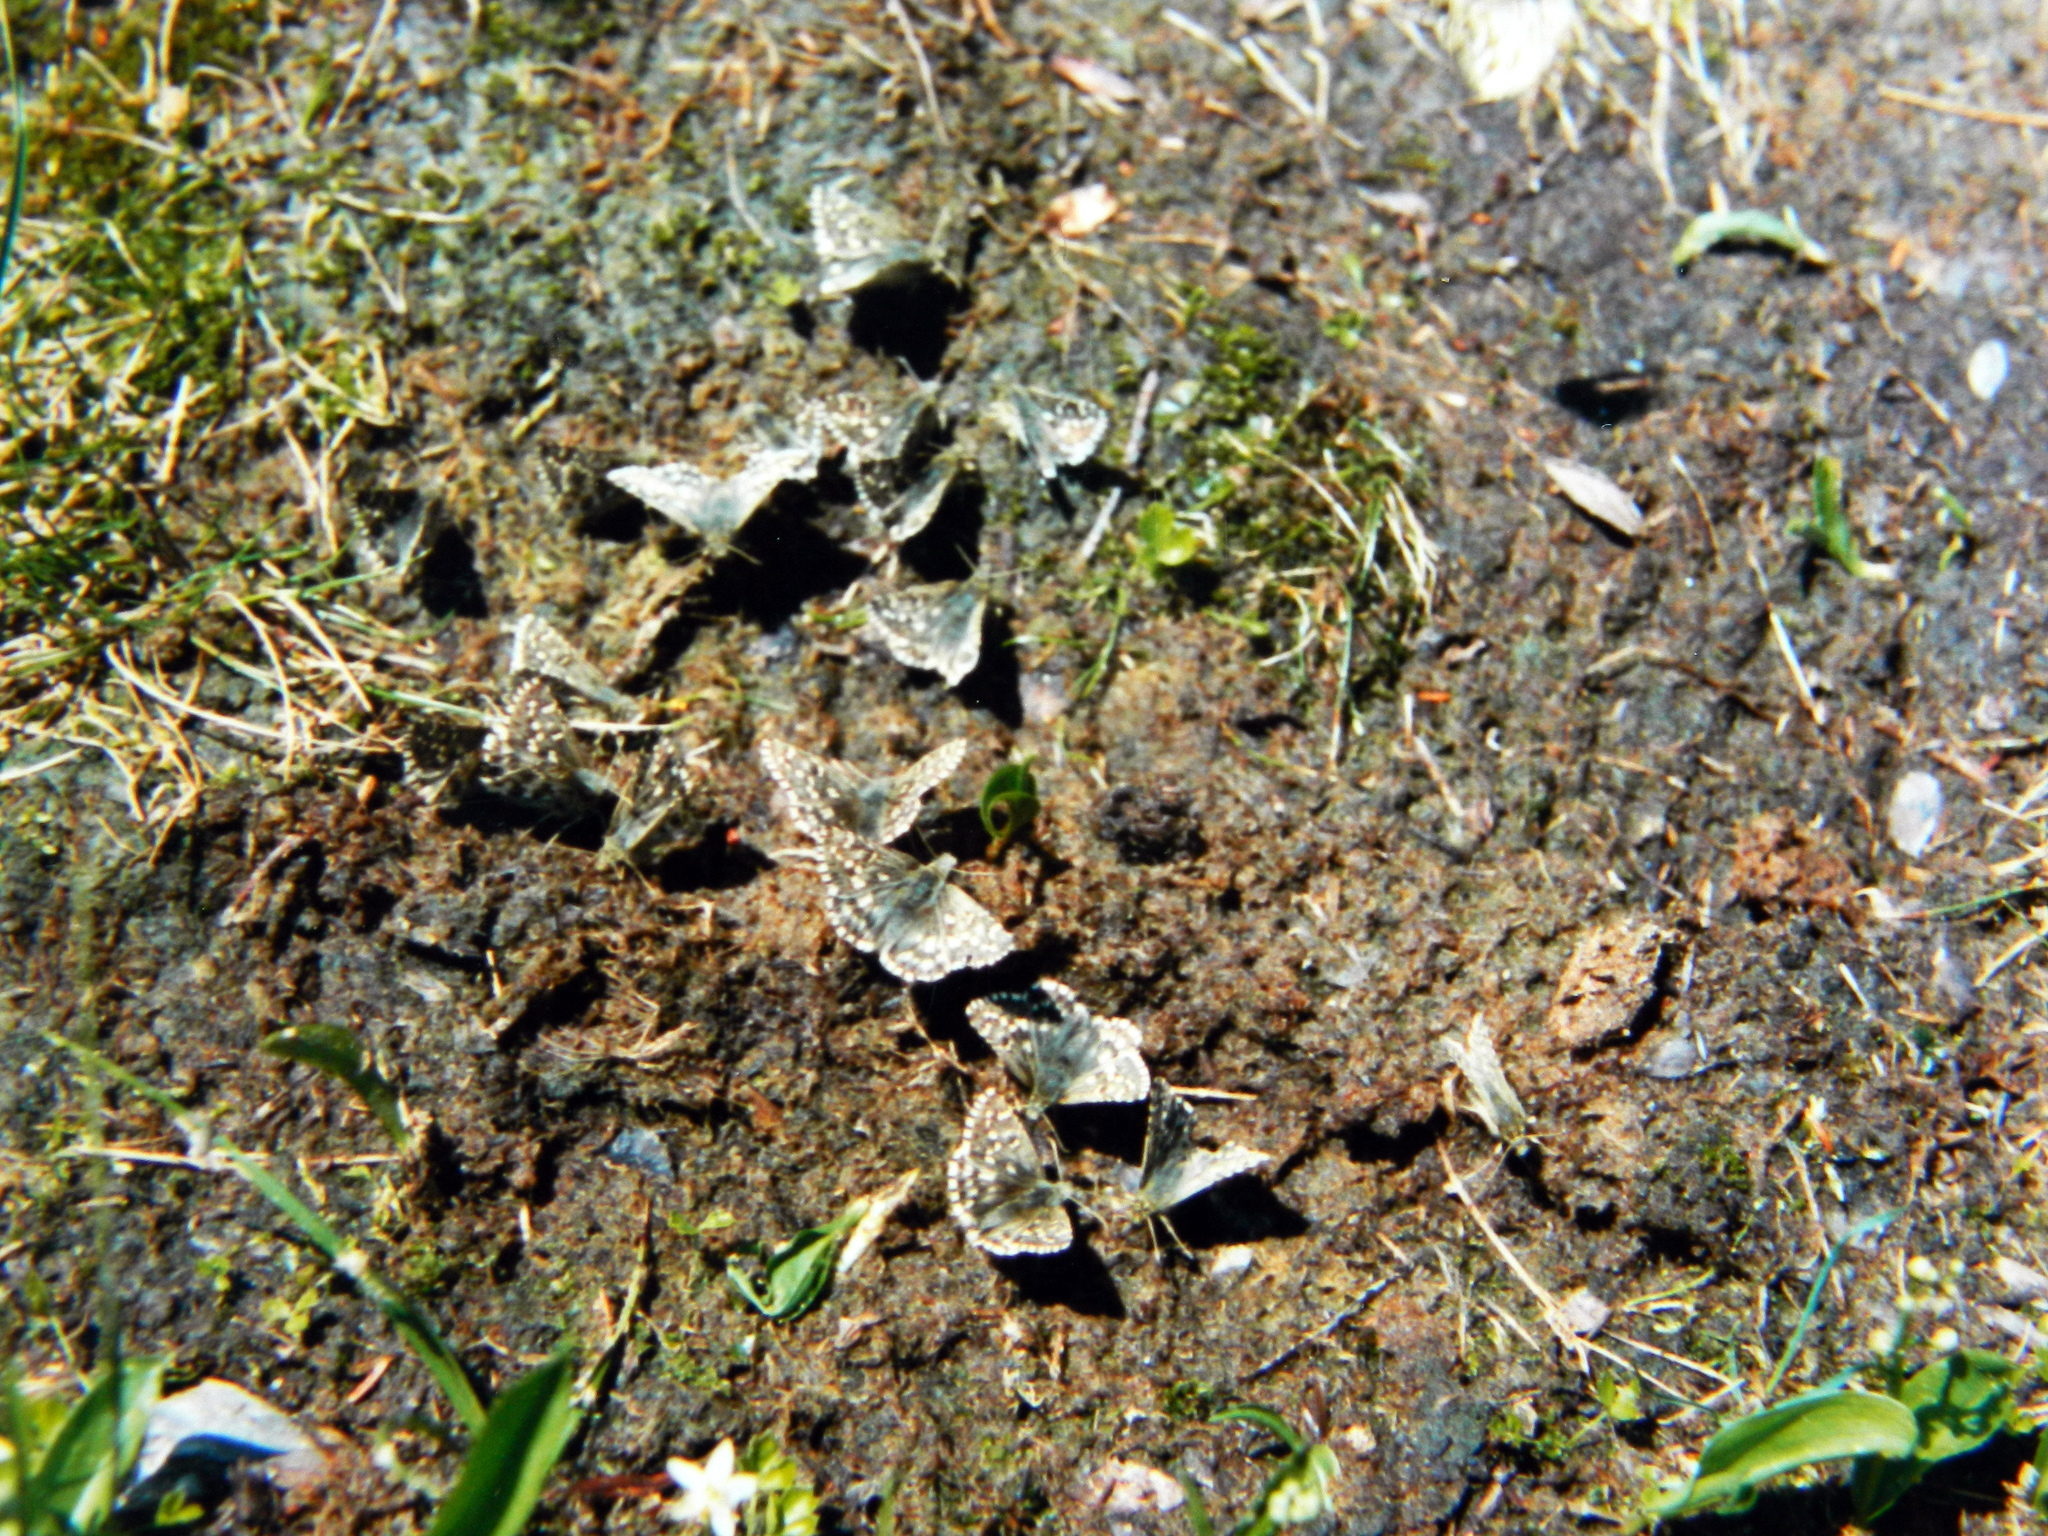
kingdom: Animalia
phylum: Arthropoda
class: Insecta
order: Lepidoptera
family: Hesperiidae
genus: Pyrgus
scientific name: Pyrgus centaureae
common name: Northern grizzled skipper
